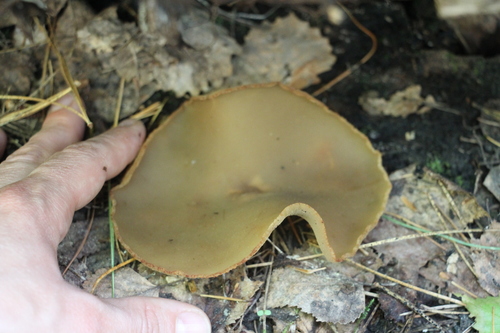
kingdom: Fungi
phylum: Ascomycota
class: Pezizomycetes
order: Pezizales
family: Pezizaceae
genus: Peziza
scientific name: Peziza varia
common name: Layered cup
